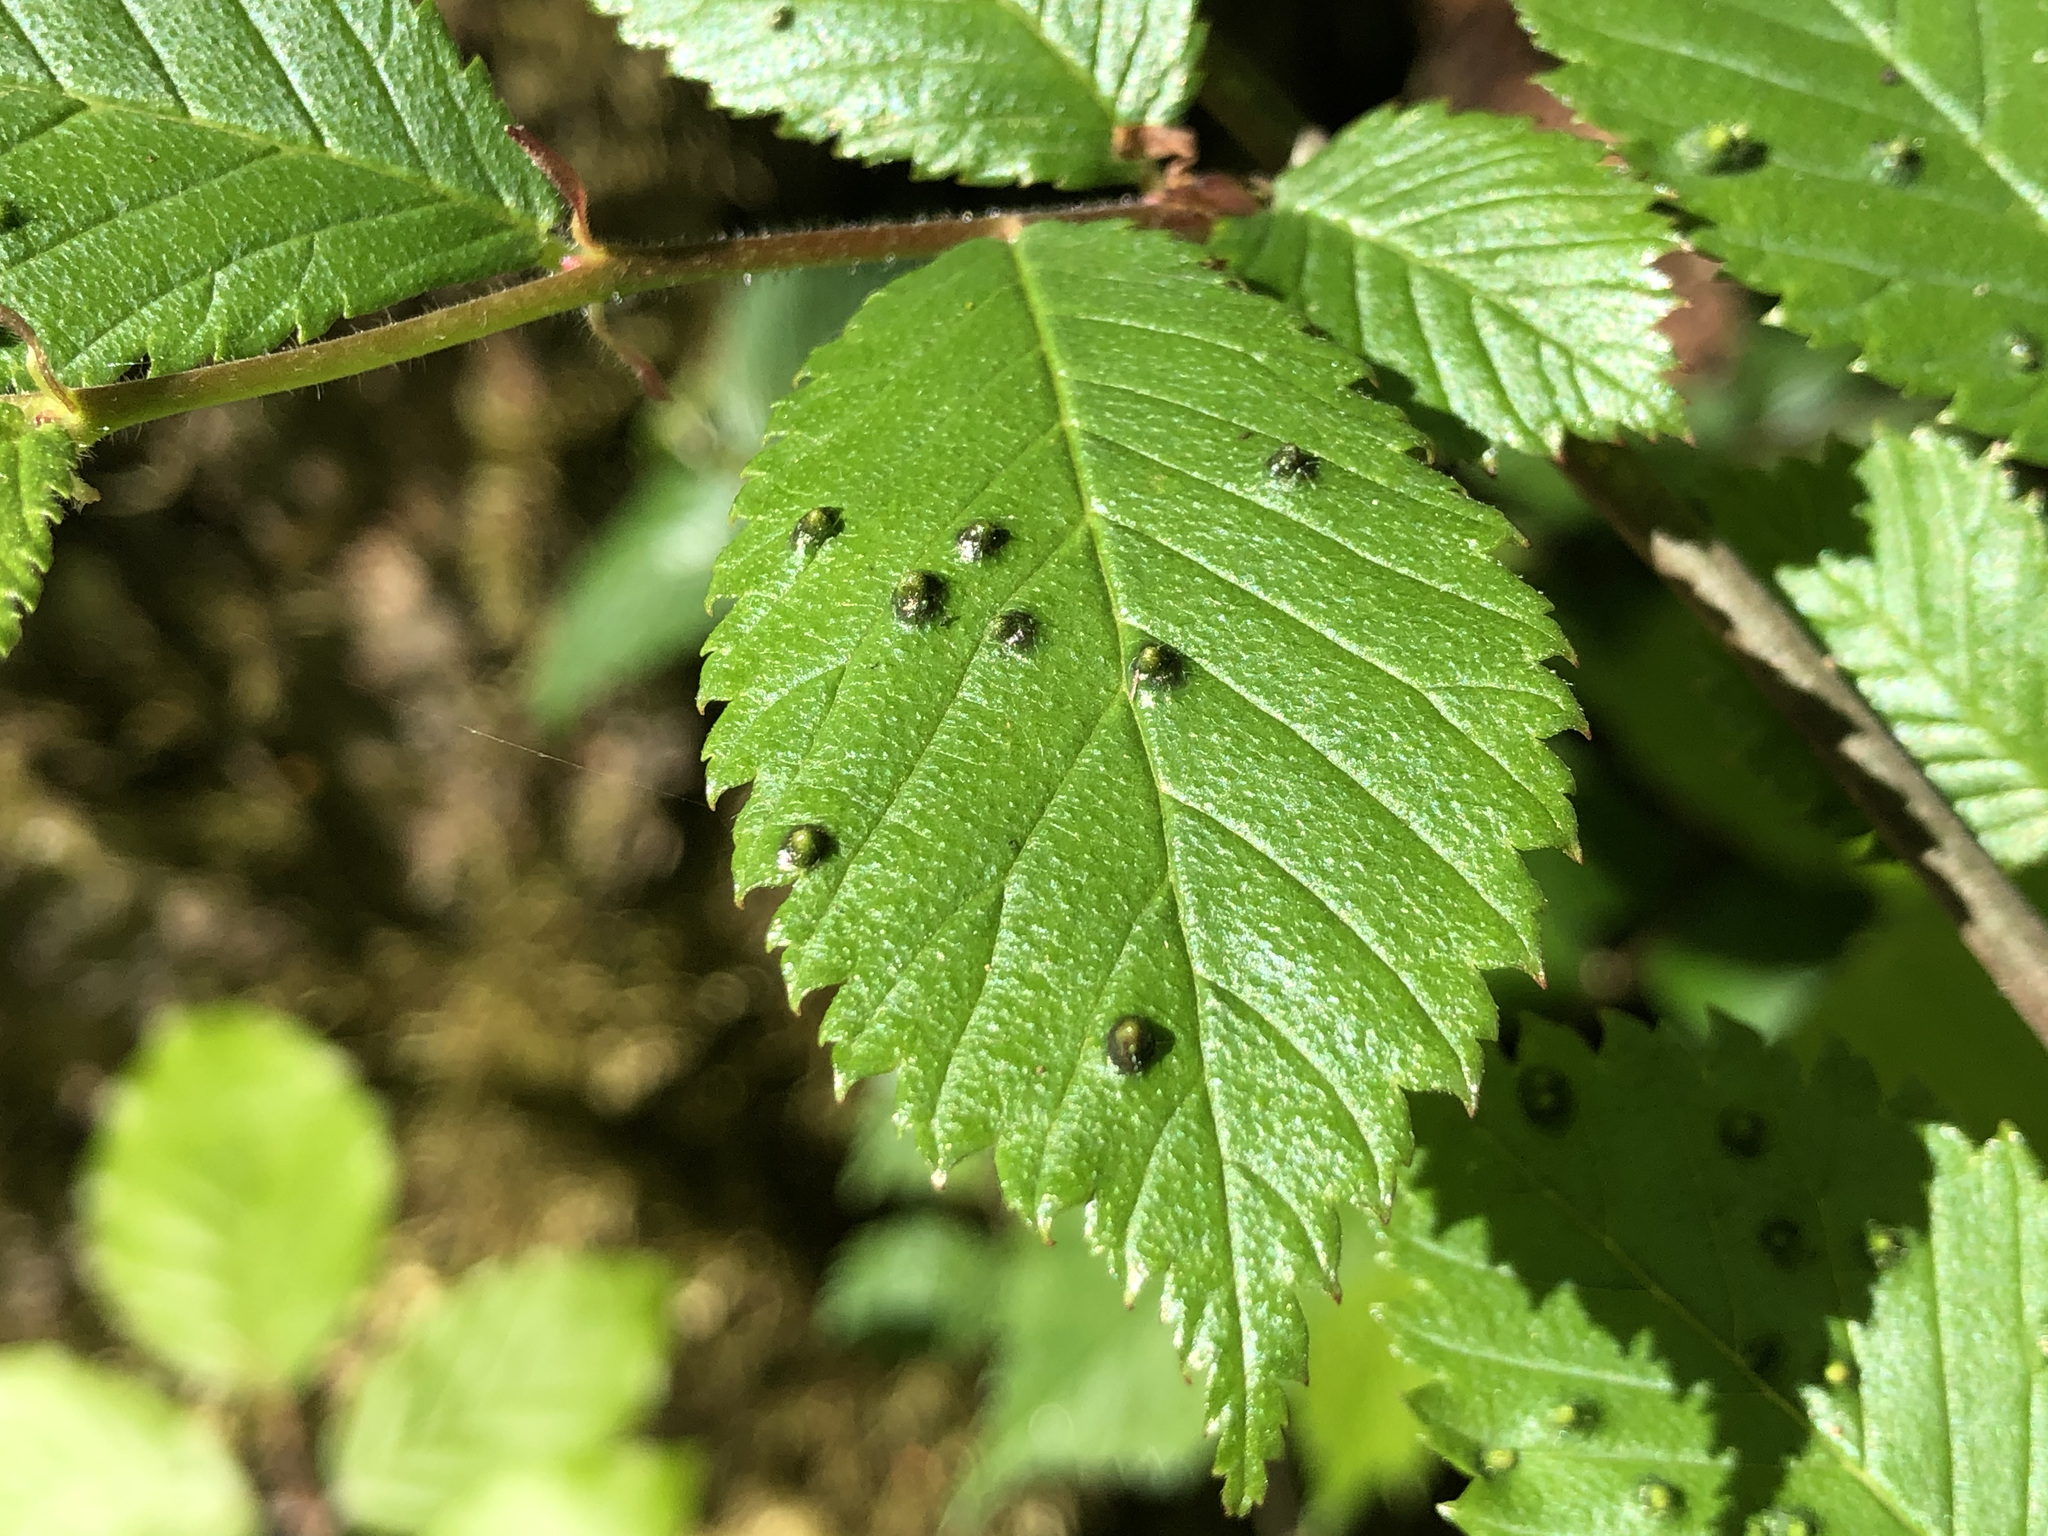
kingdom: Animalia
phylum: Arthropoda
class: Arachnida
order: Trombidiformes
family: Eriophyidae
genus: Aceria
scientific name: Aceria brevipunctata
